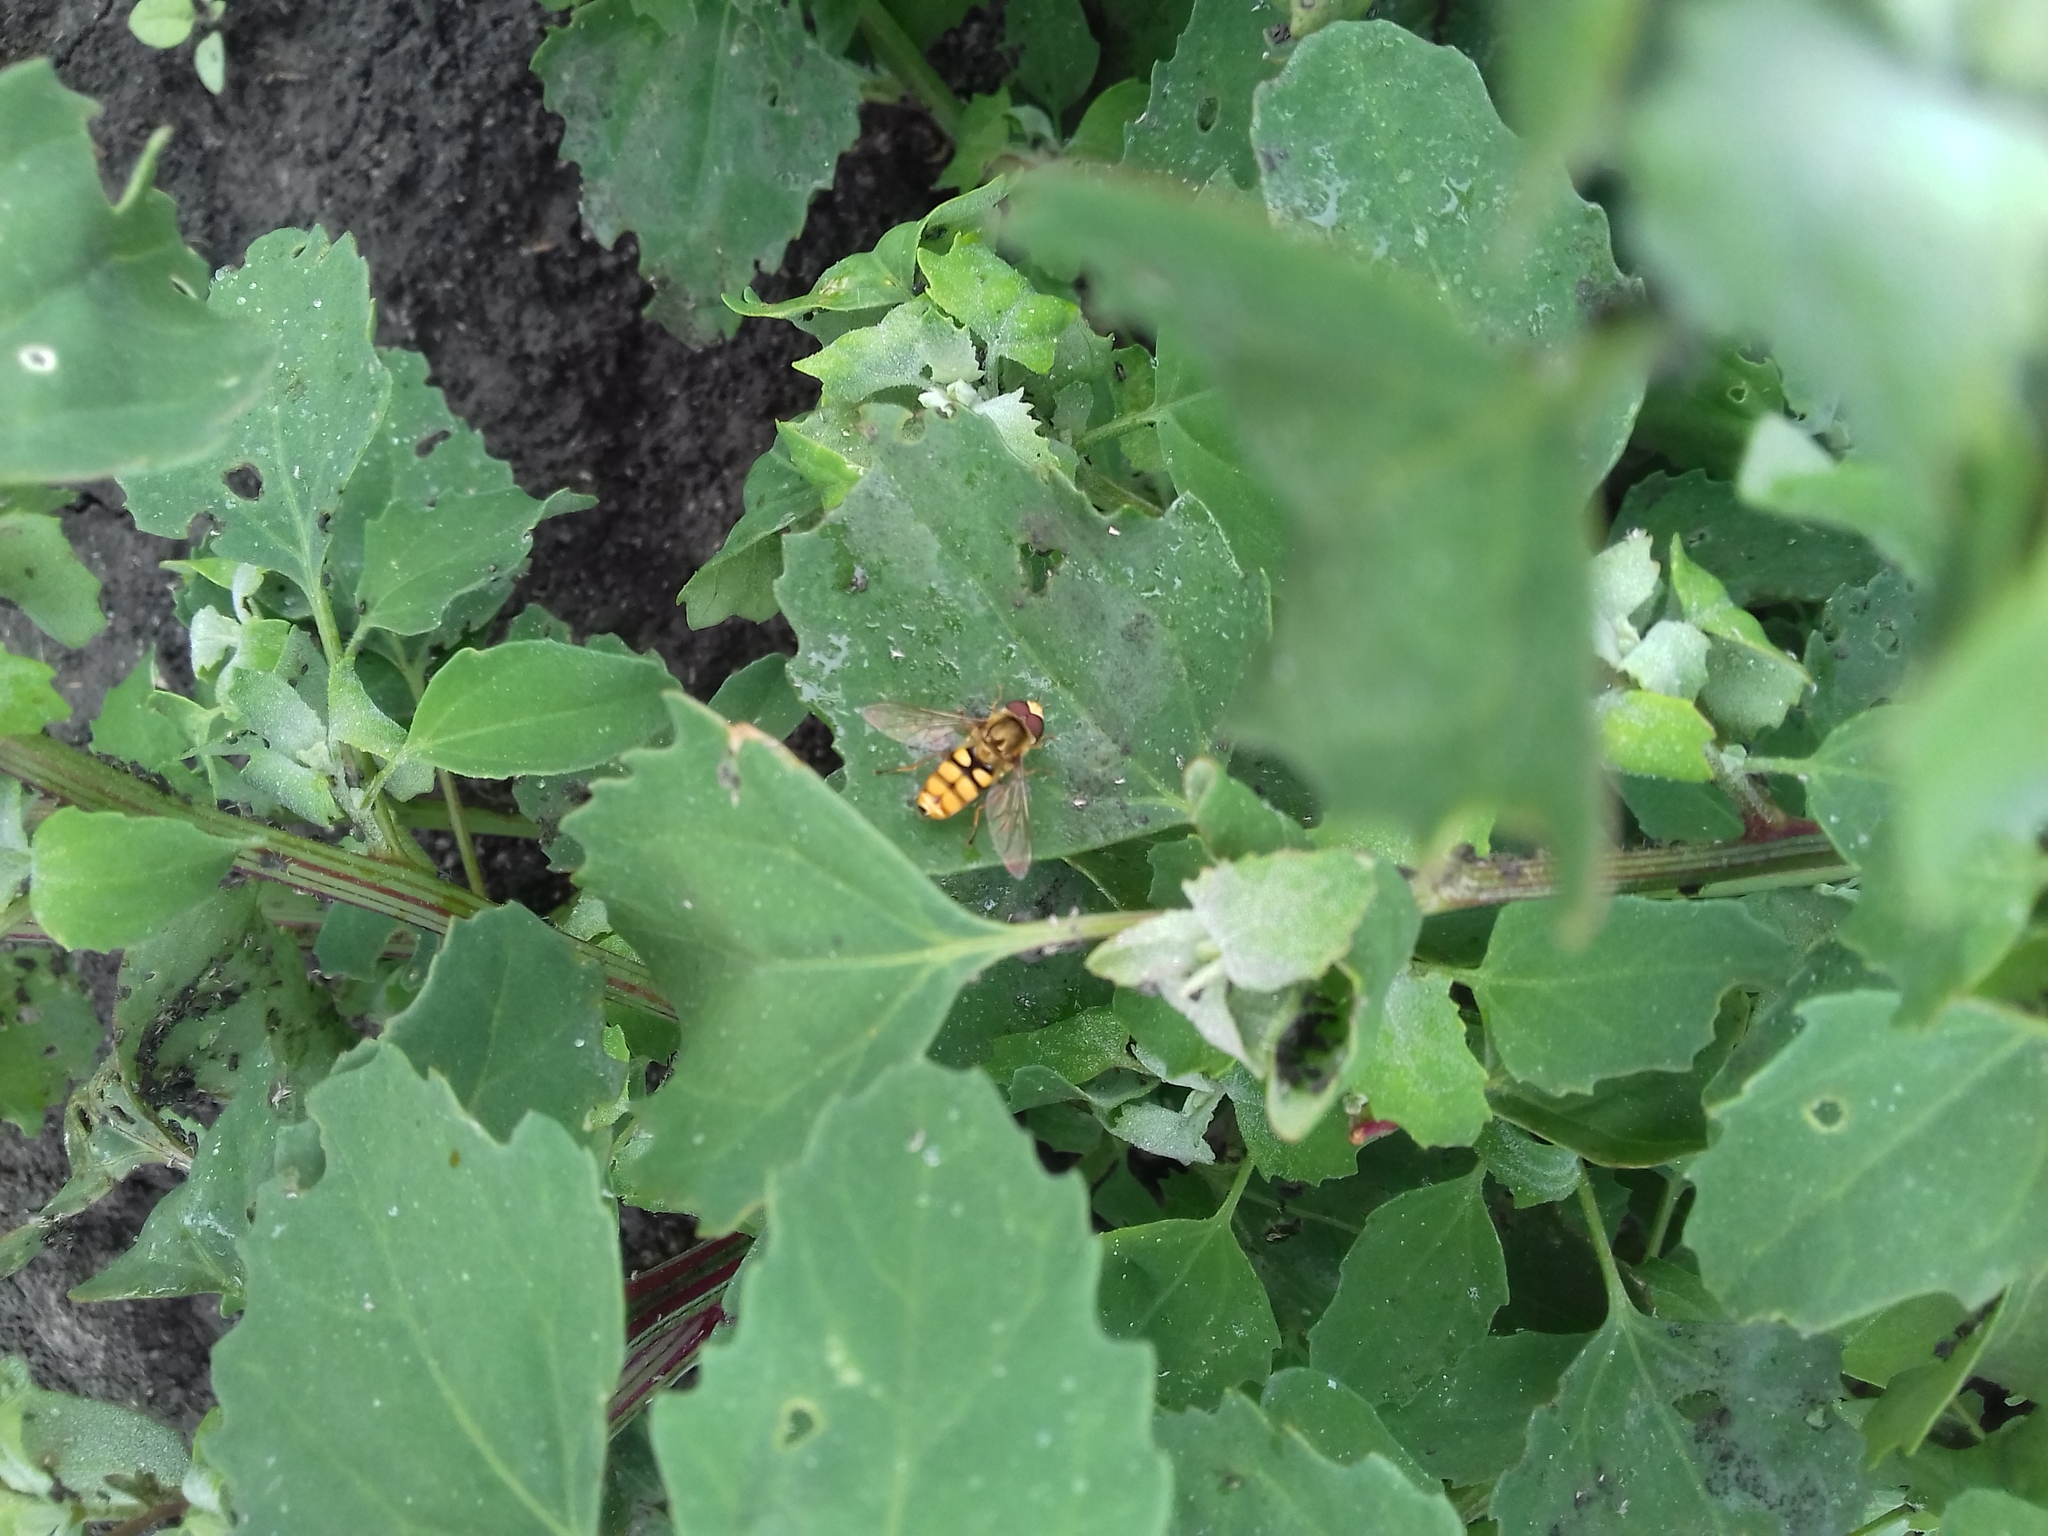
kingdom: Animalia
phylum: Arthropoda
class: Insecta
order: Diptera
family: Syrphidae
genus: Eupeodes
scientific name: Eupeodes
